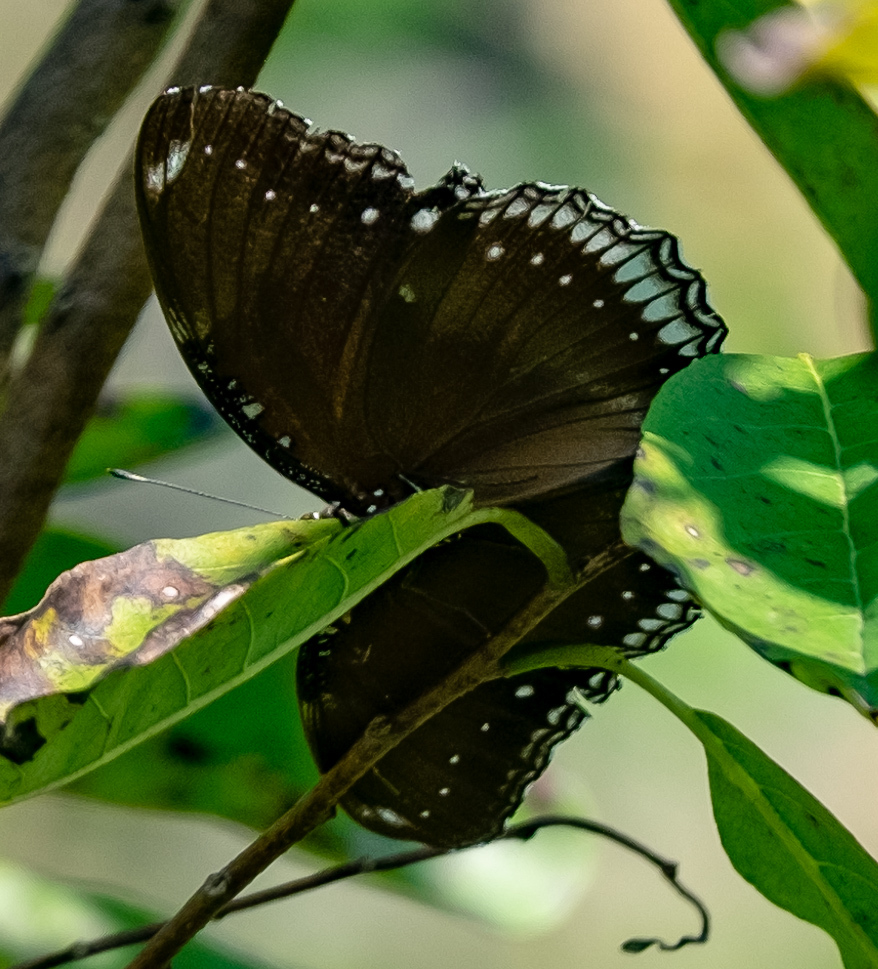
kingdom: Animalia
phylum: Arthropoda
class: Insecta
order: Lepidoptera
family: Nymphalidae
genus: Hypolimnas
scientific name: Hypolimnas bolina
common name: Great eggfly
